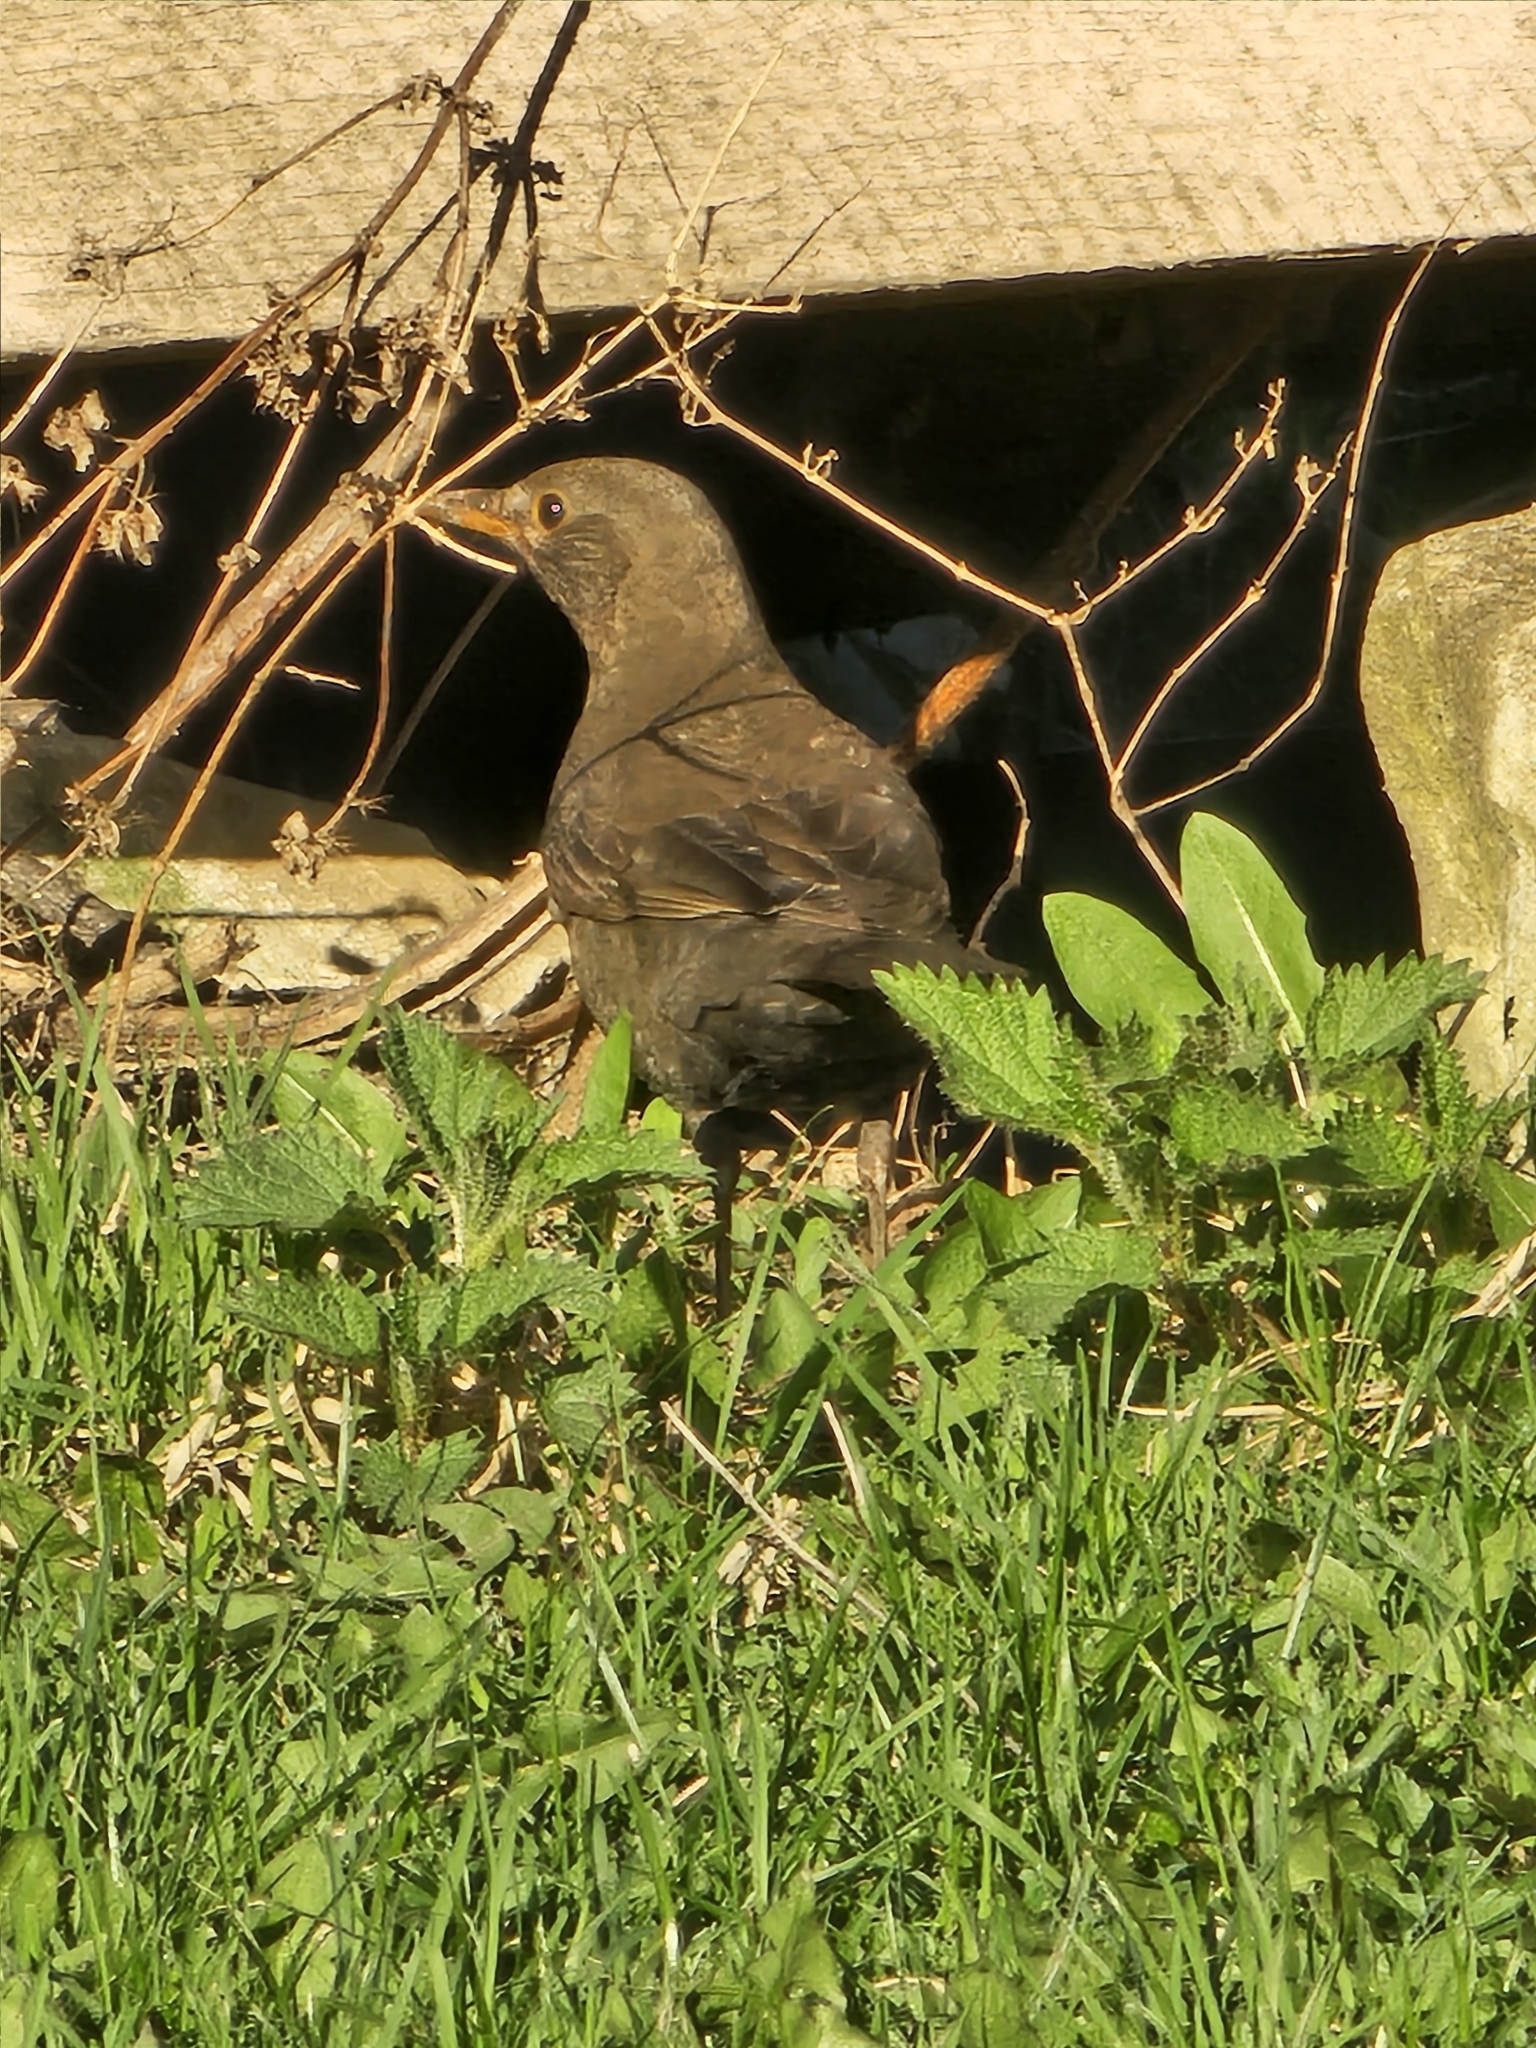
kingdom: Animalia
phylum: Chordata
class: Aves
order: Passeriformes
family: Turdidae
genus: Turdus
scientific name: Turdus merula
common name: Common blackbird
